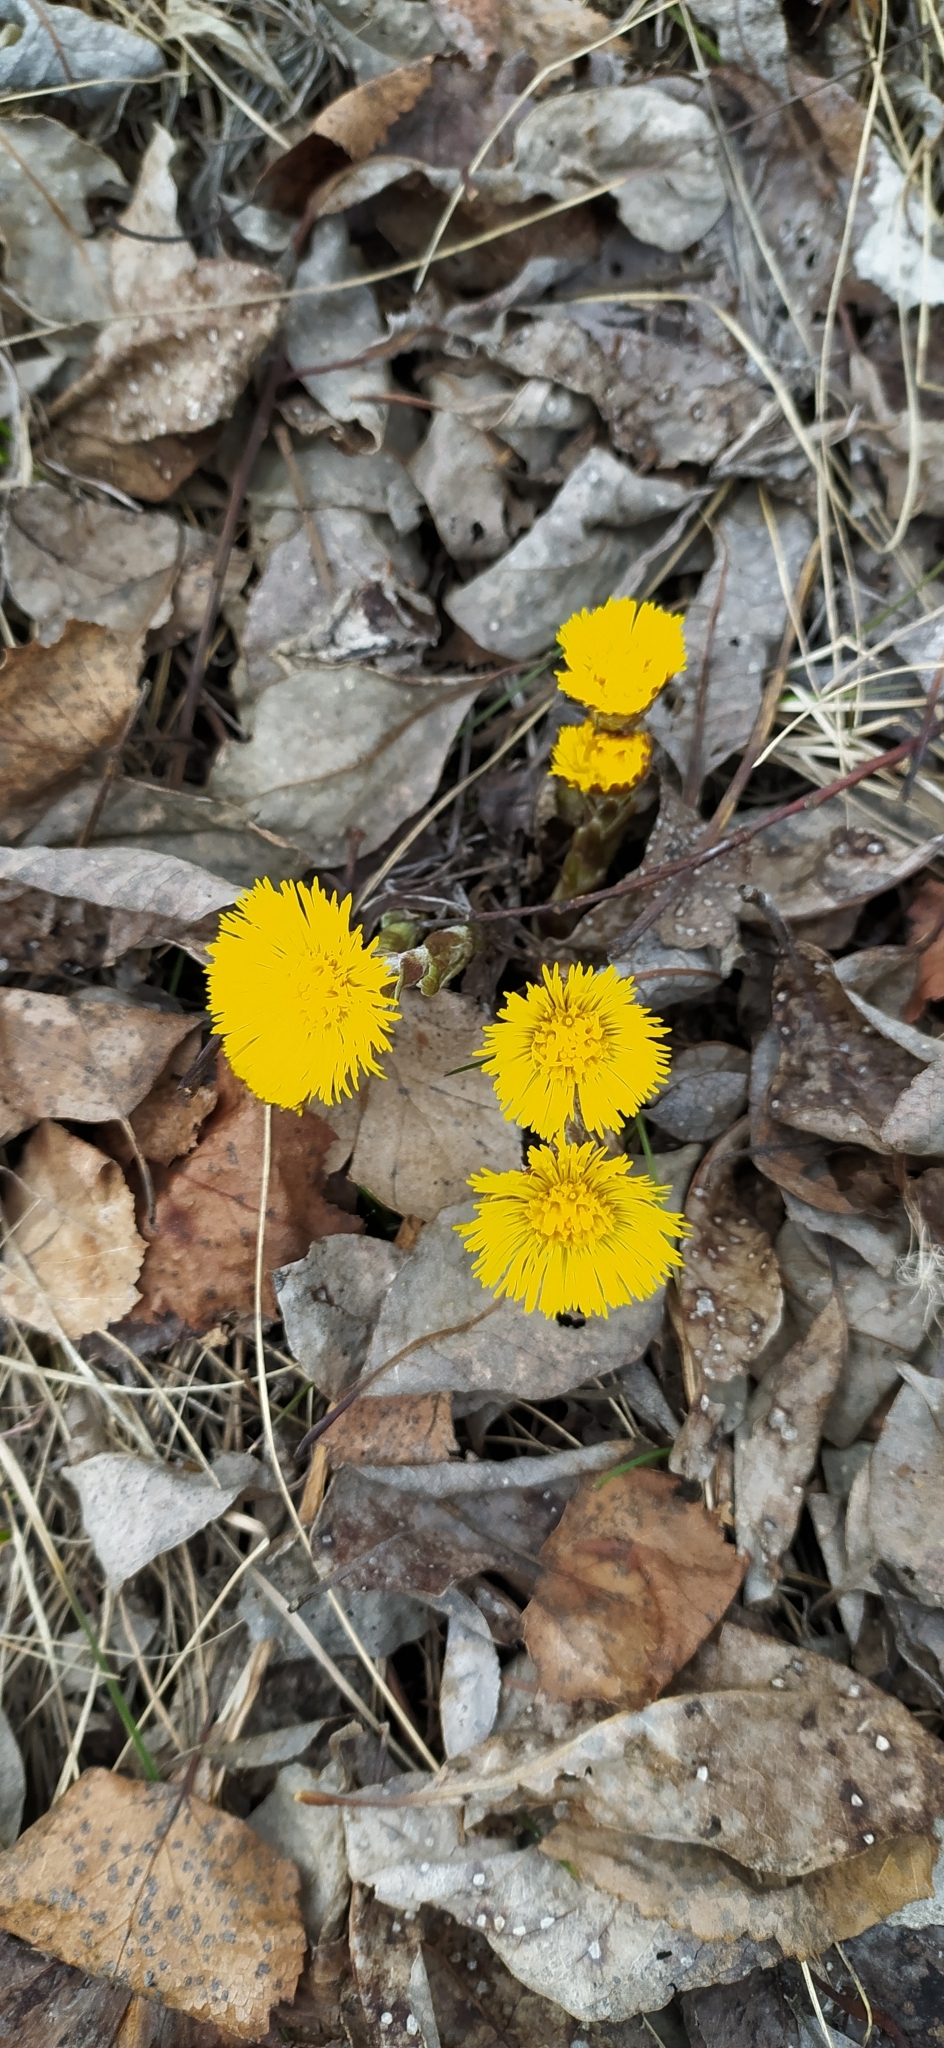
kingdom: Plantae
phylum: Tracheophyta
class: Magnoliopsida
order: Asterales
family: Asteraceae
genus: Tussilago
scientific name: Tussilago farfara
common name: Coltsfoot
